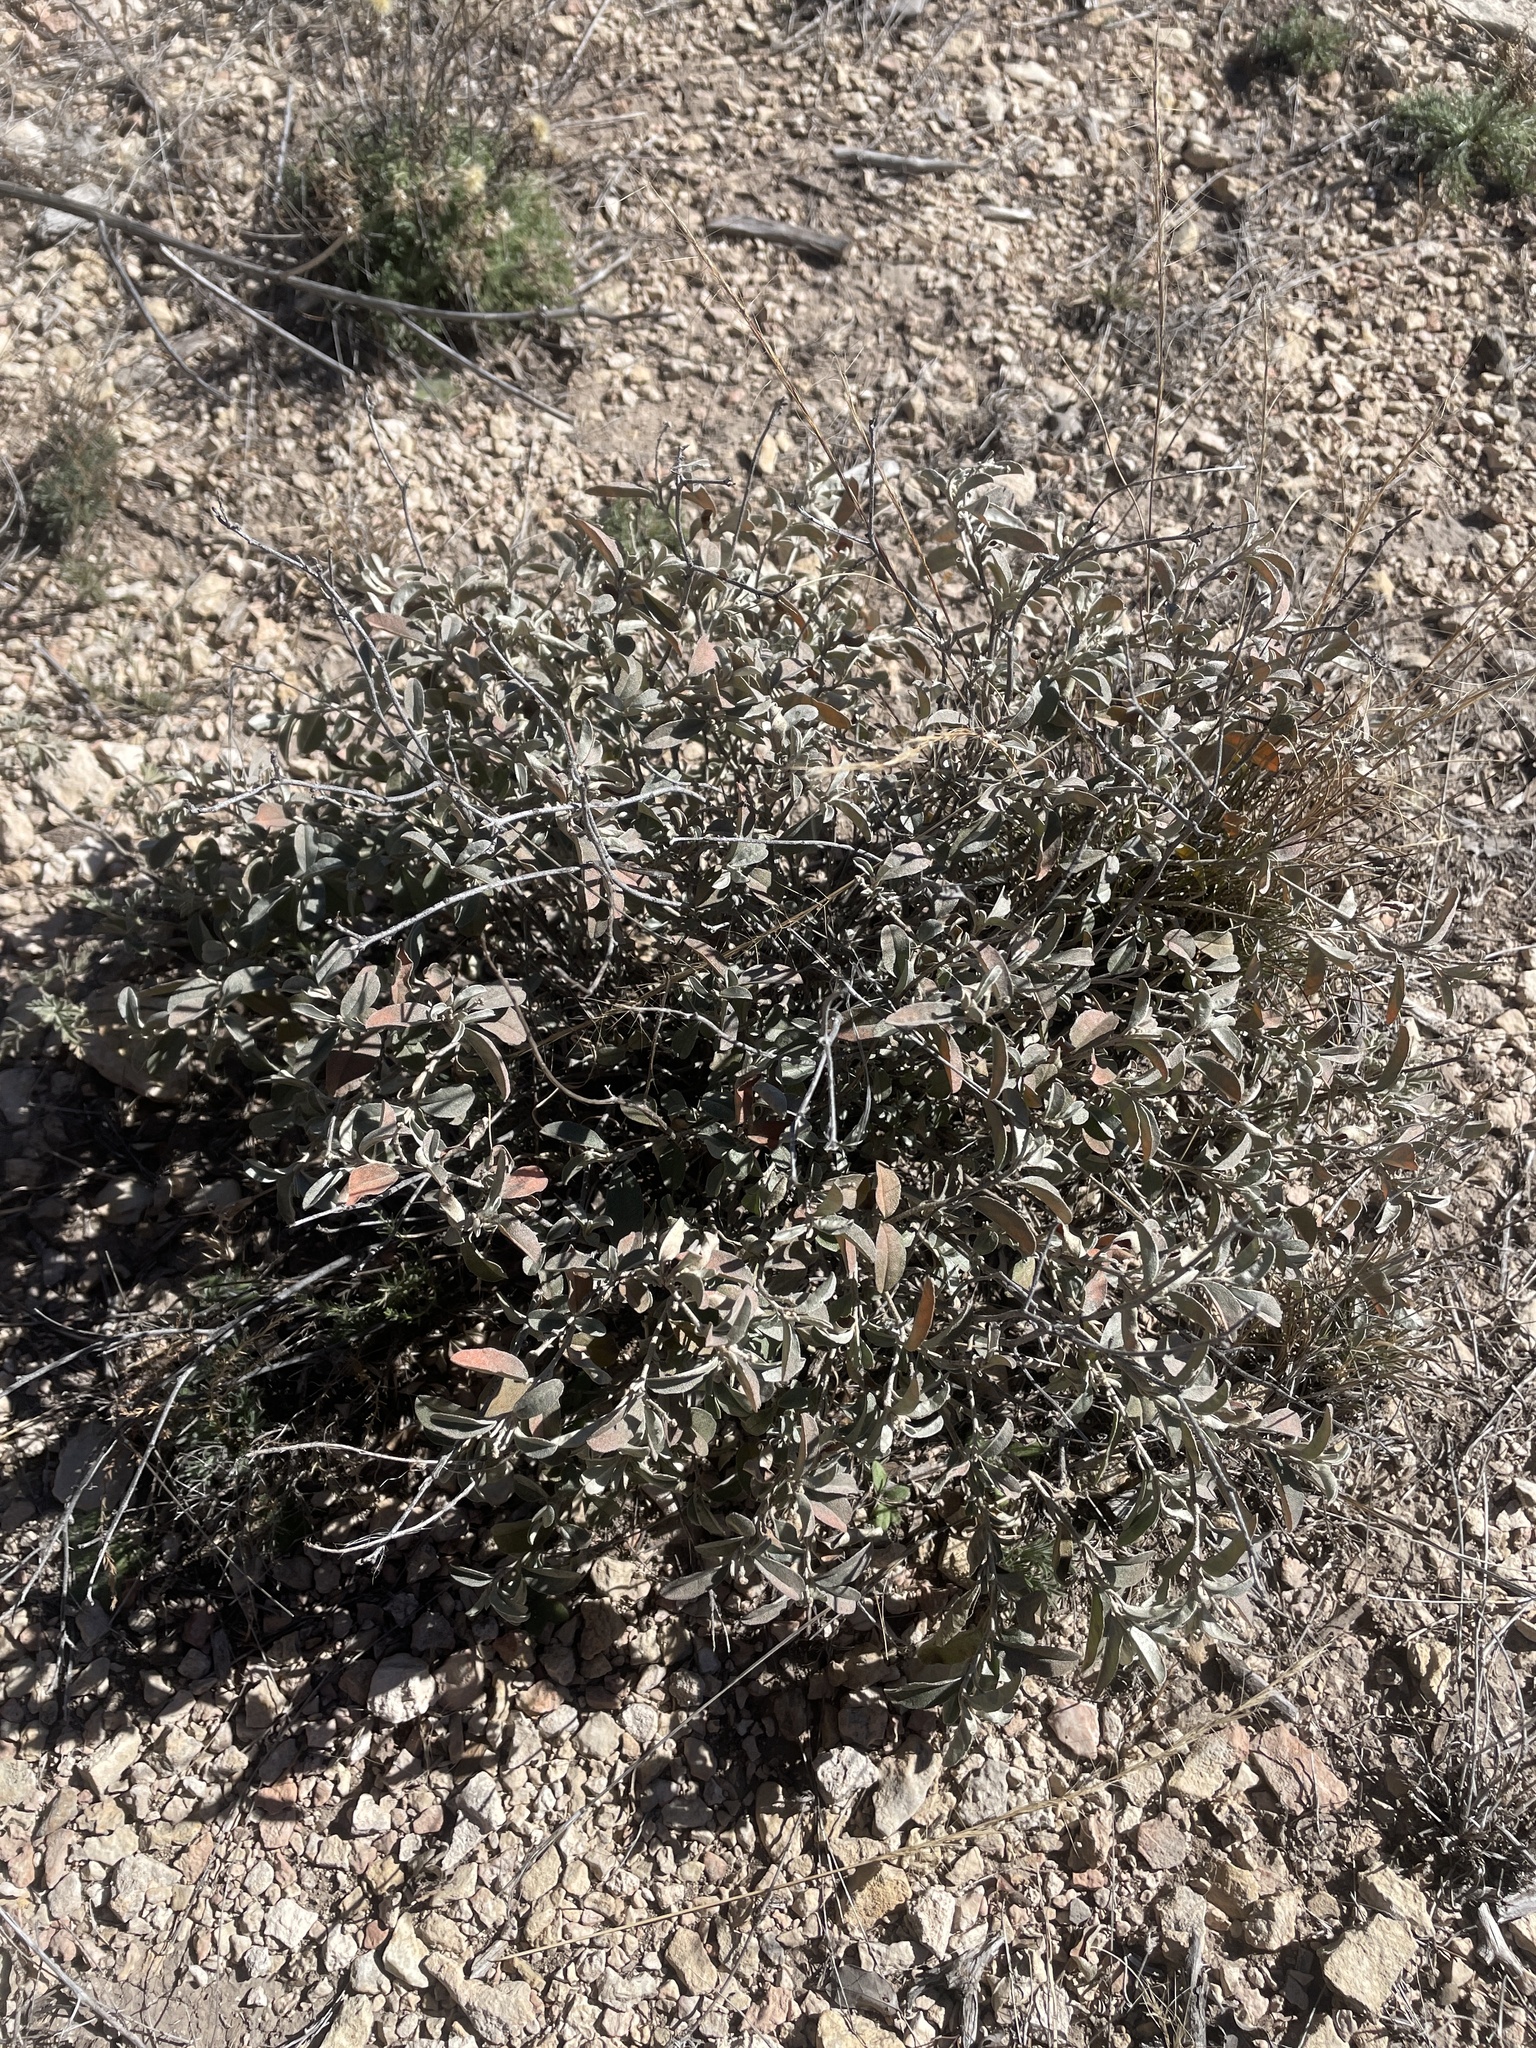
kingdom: Plantae
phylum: Tracheophyta
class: Magnoliopsida
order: Malpighiales
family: Euphorbiaceae
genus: Croton
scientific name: Croton dioicus
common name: Grassland croton
